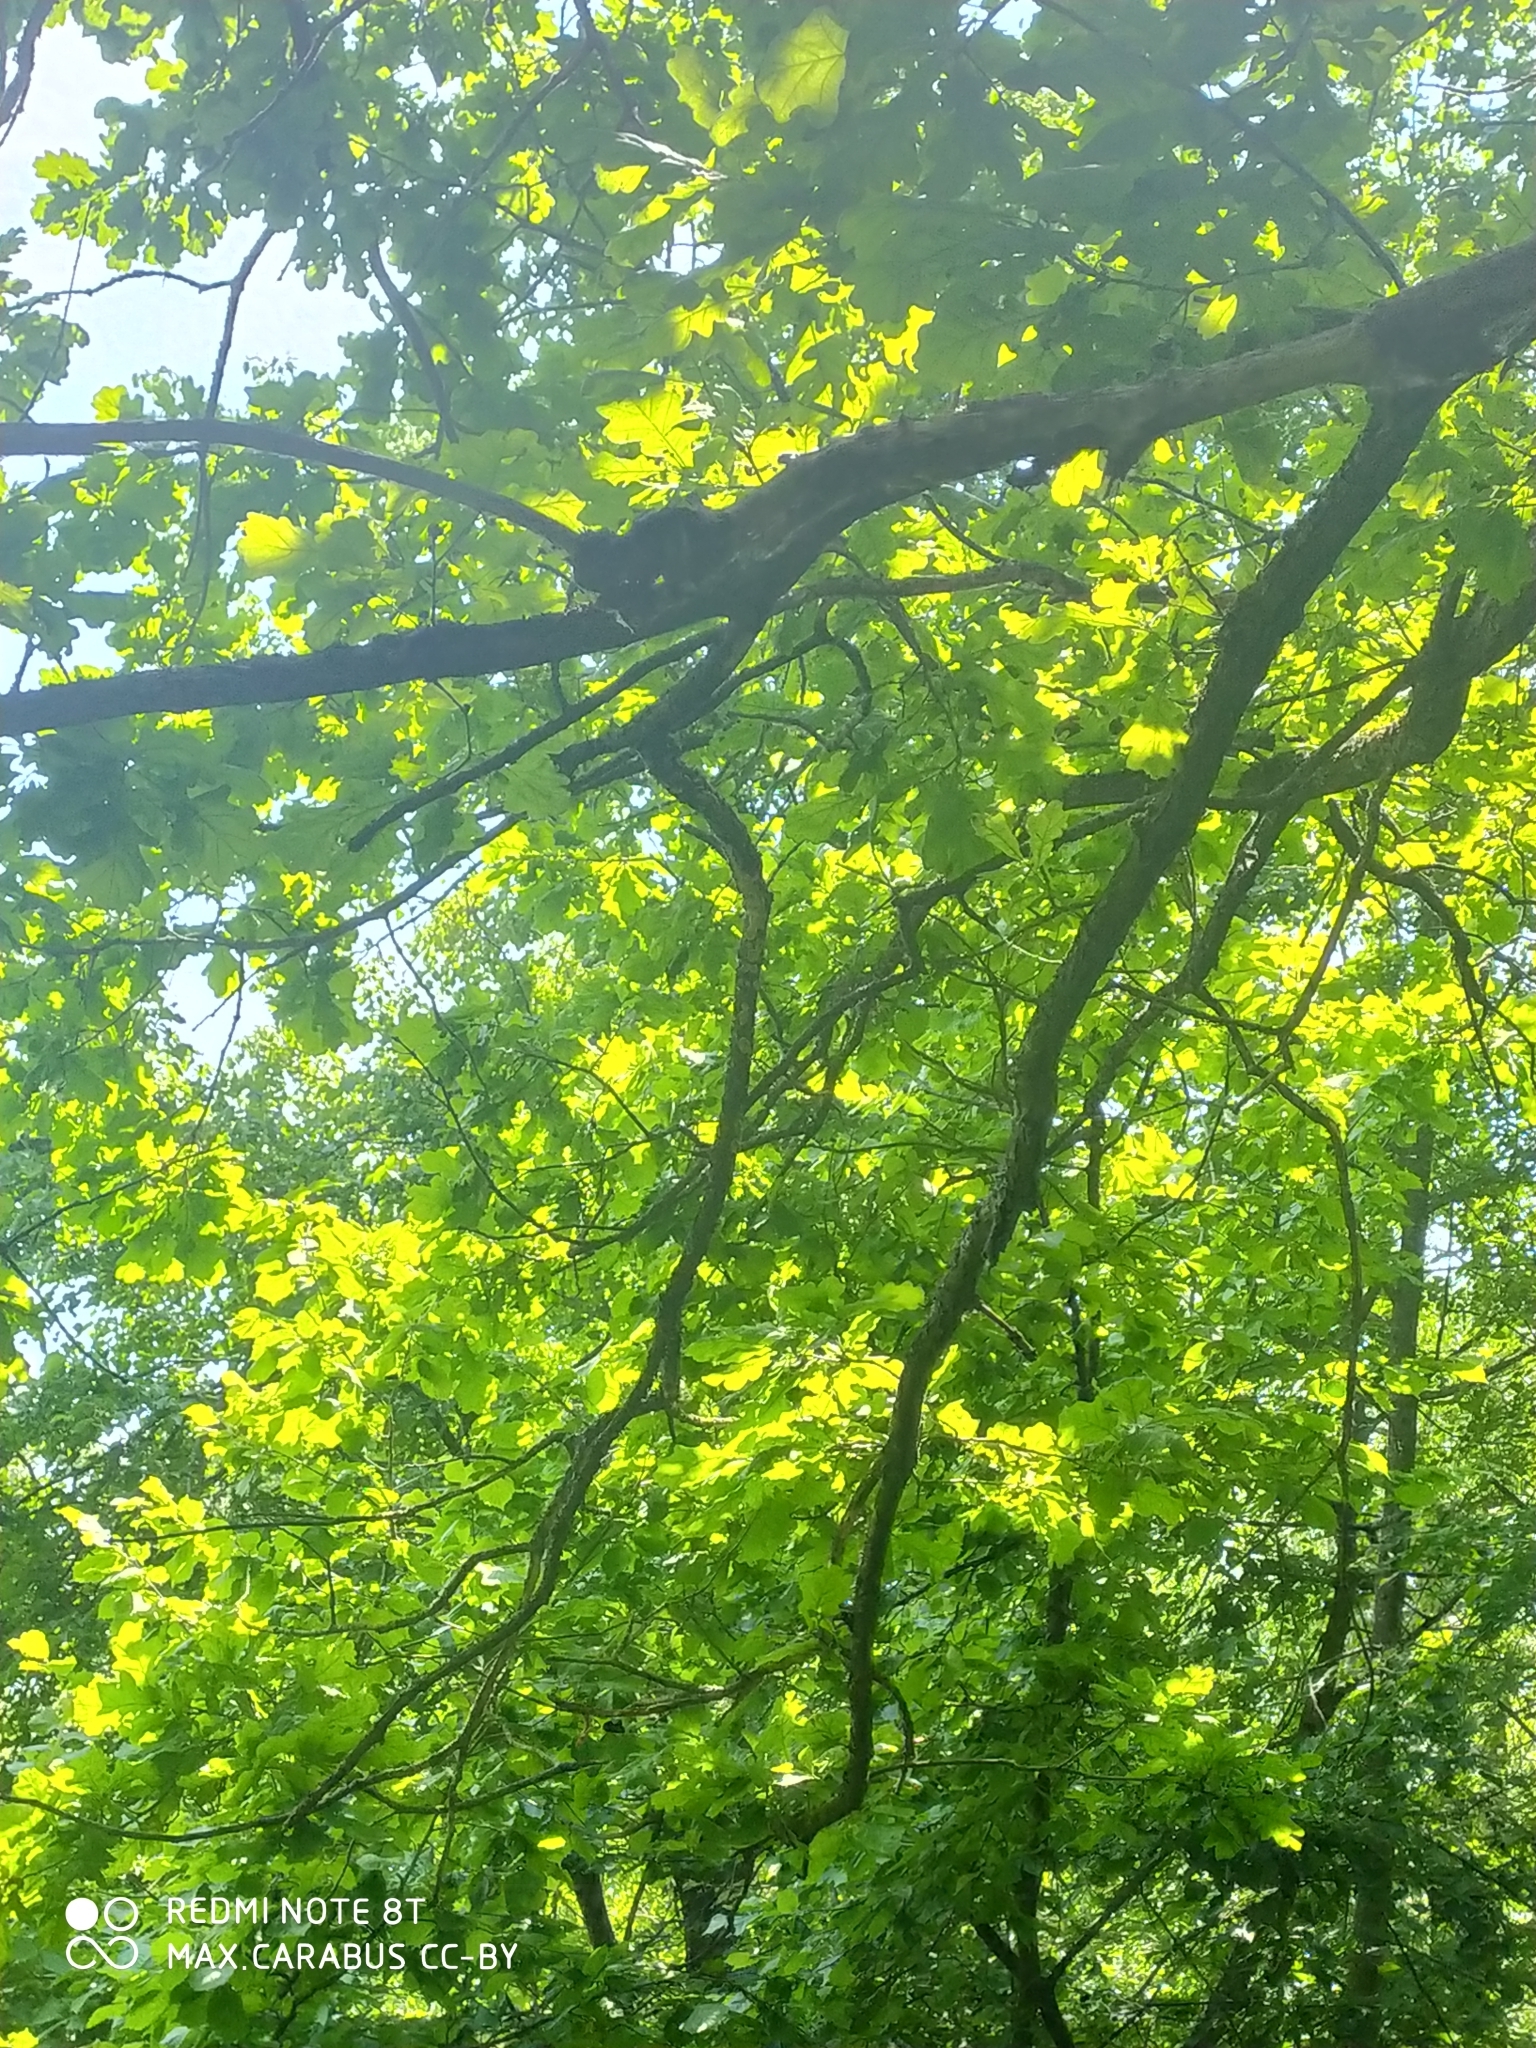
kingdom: Plantae
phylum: Tracheophyta
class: Magnoliopsida
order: Fagales
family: Fagaceae
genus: Quercus
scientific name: Quercus robur
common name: Pedunculate oak
